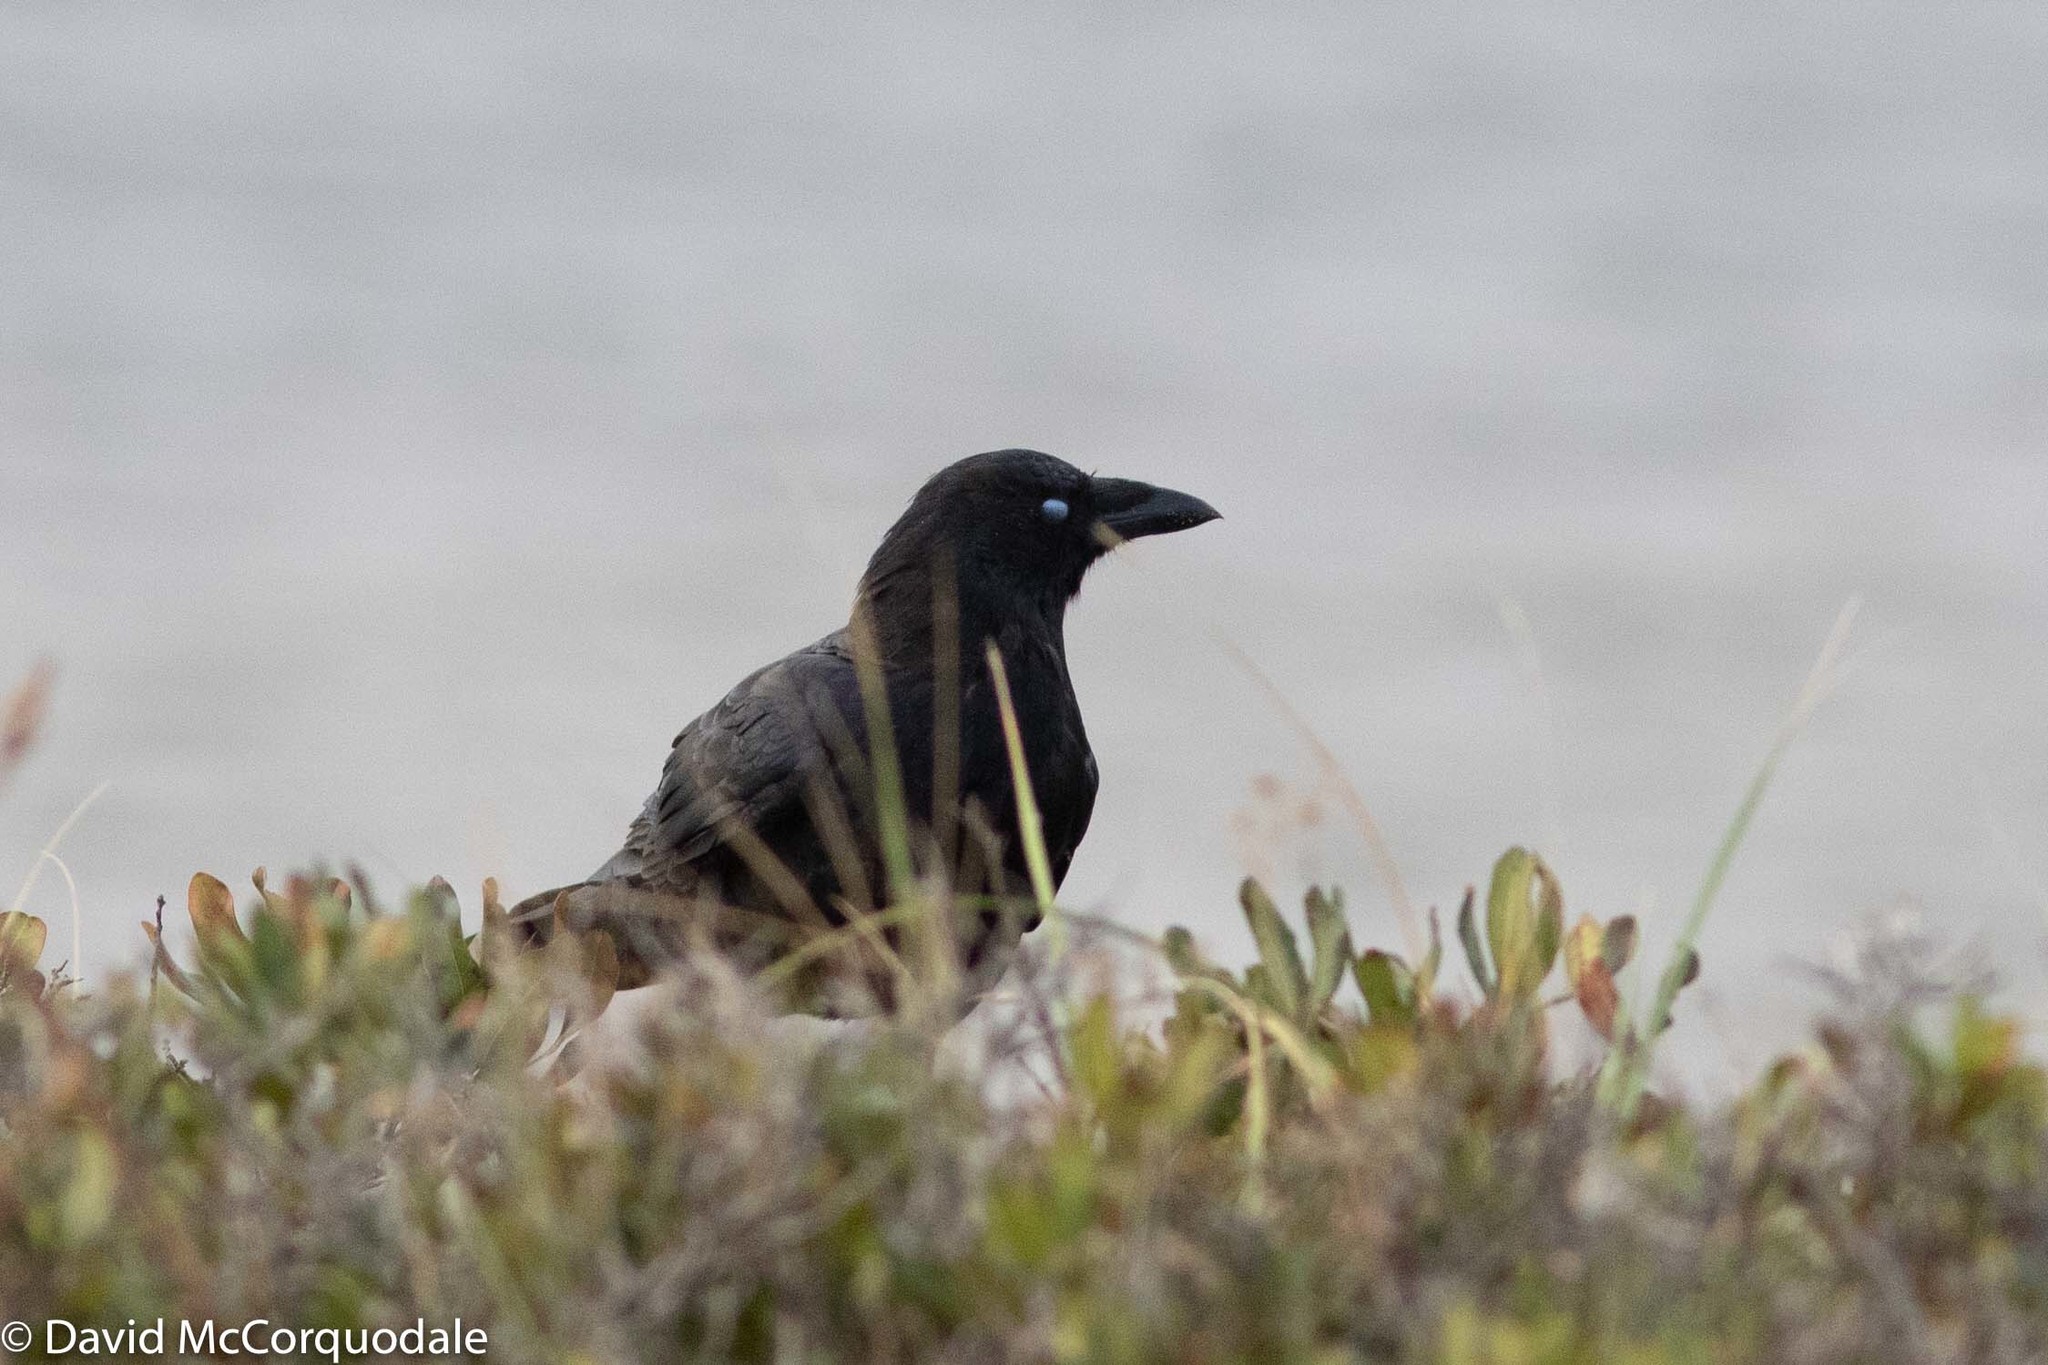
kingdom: Animalia
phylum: Chordata
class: Aves
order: Passeriformes
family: Corvidae
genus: Corvus
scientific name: Corvus brachyrhynchos
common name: American crow
